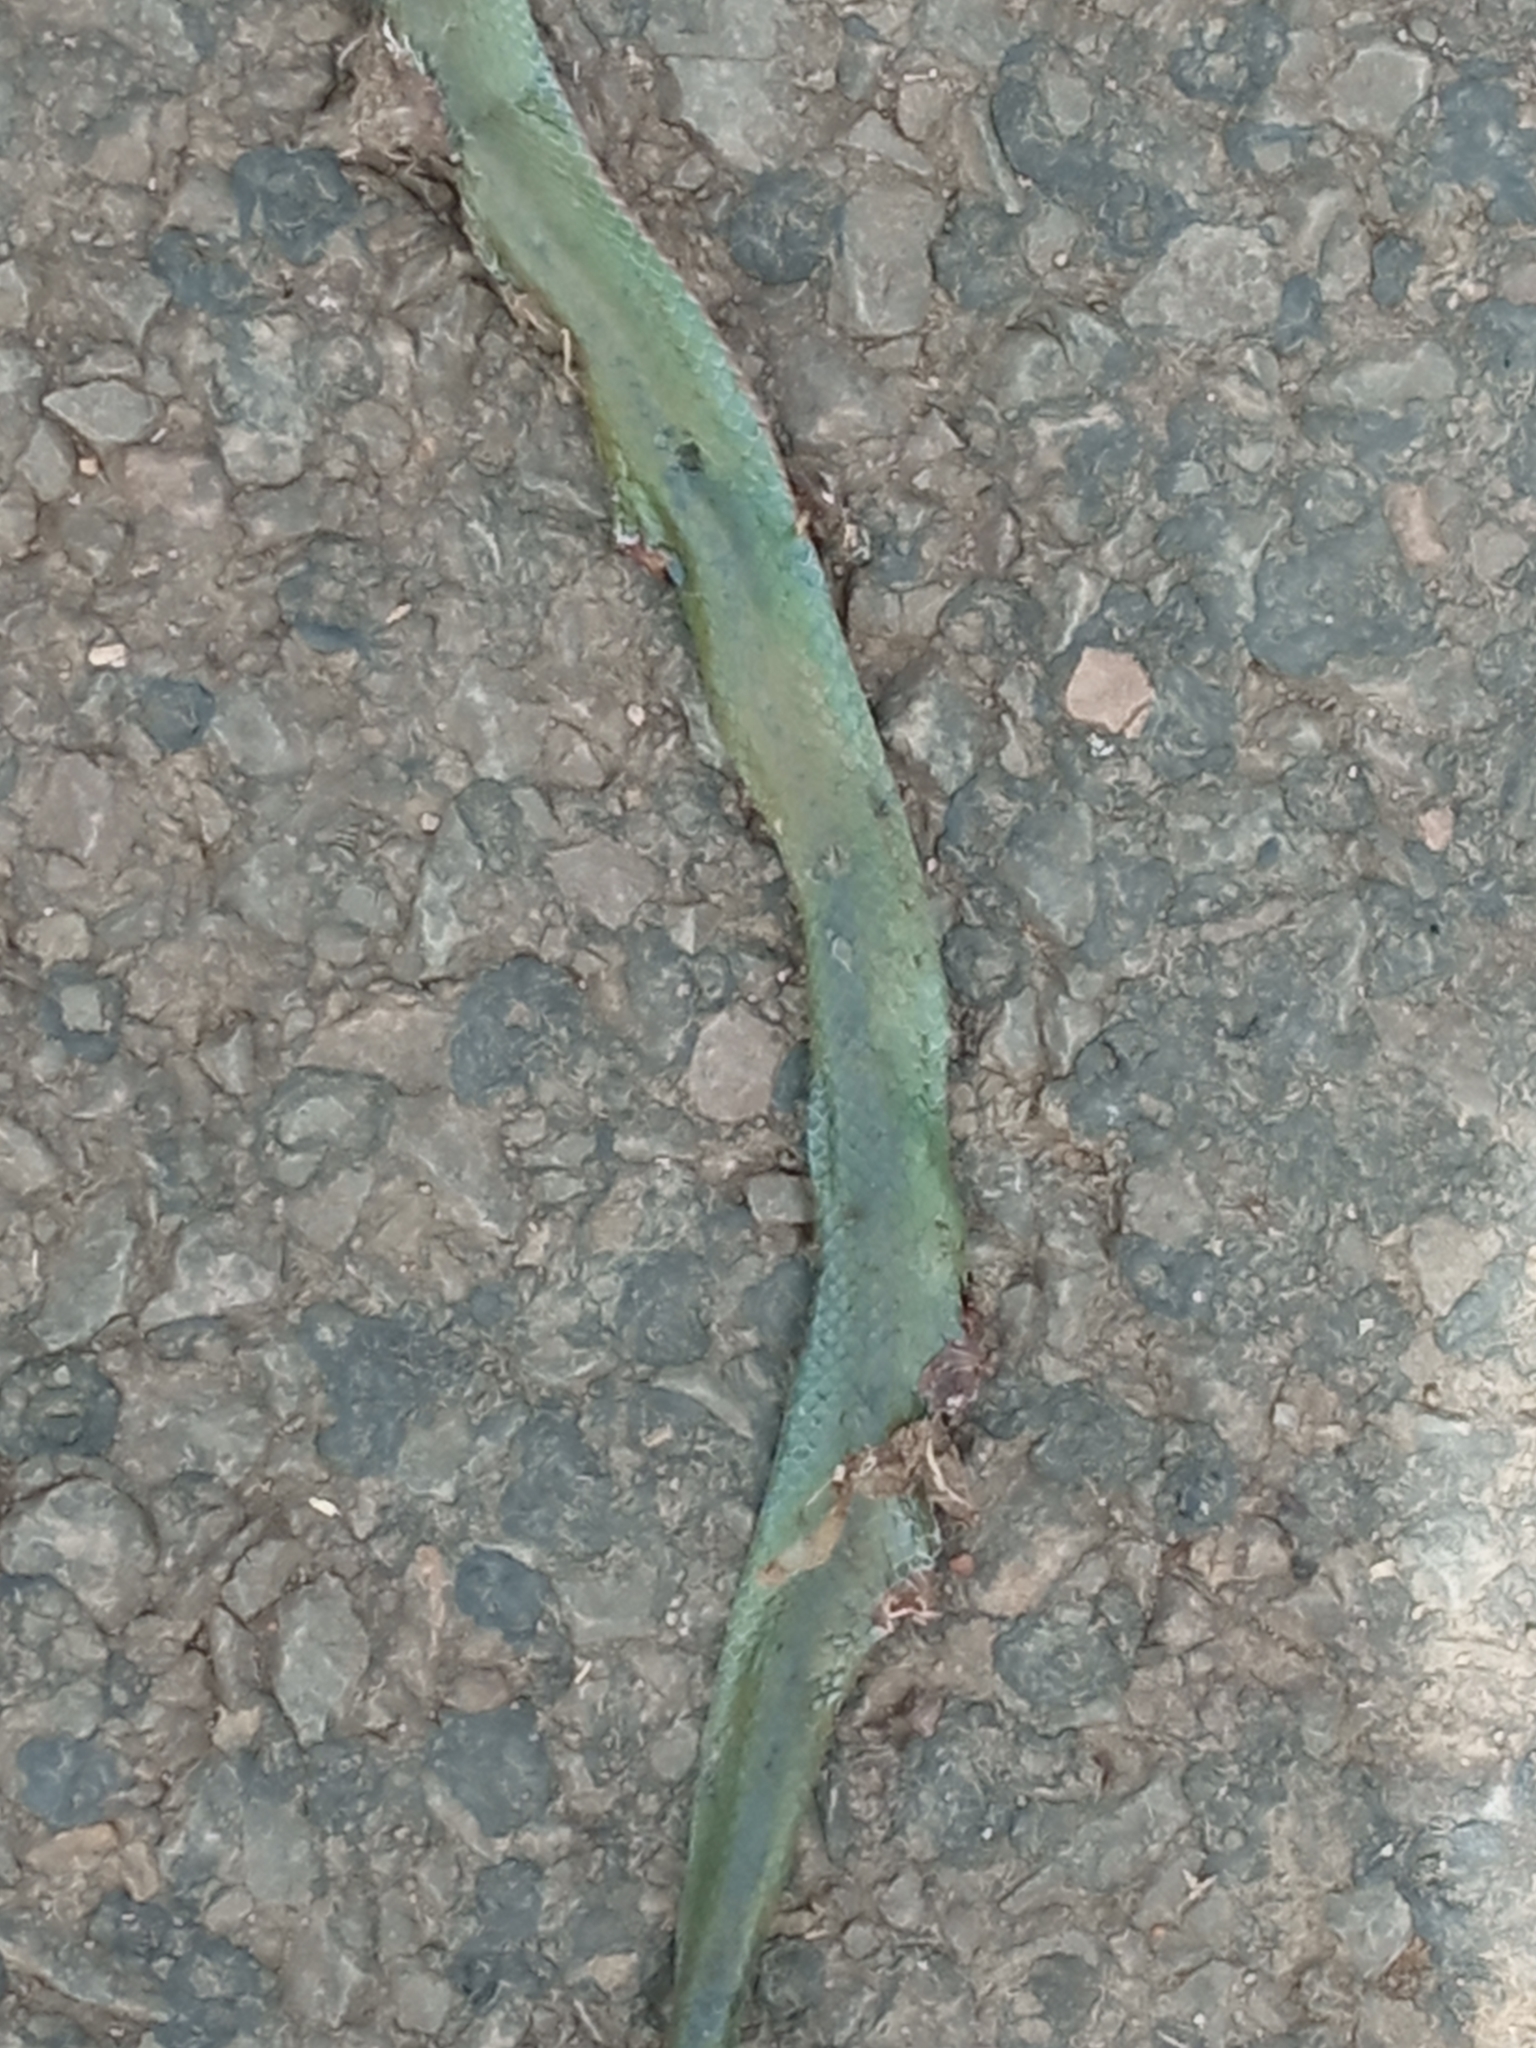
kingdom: Animalia
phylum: Chordata
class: Squamata
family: Colubridae
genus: Erythrolamprus
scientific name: Erythrolamprus jaegeri
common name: Jaeger's ground snake
